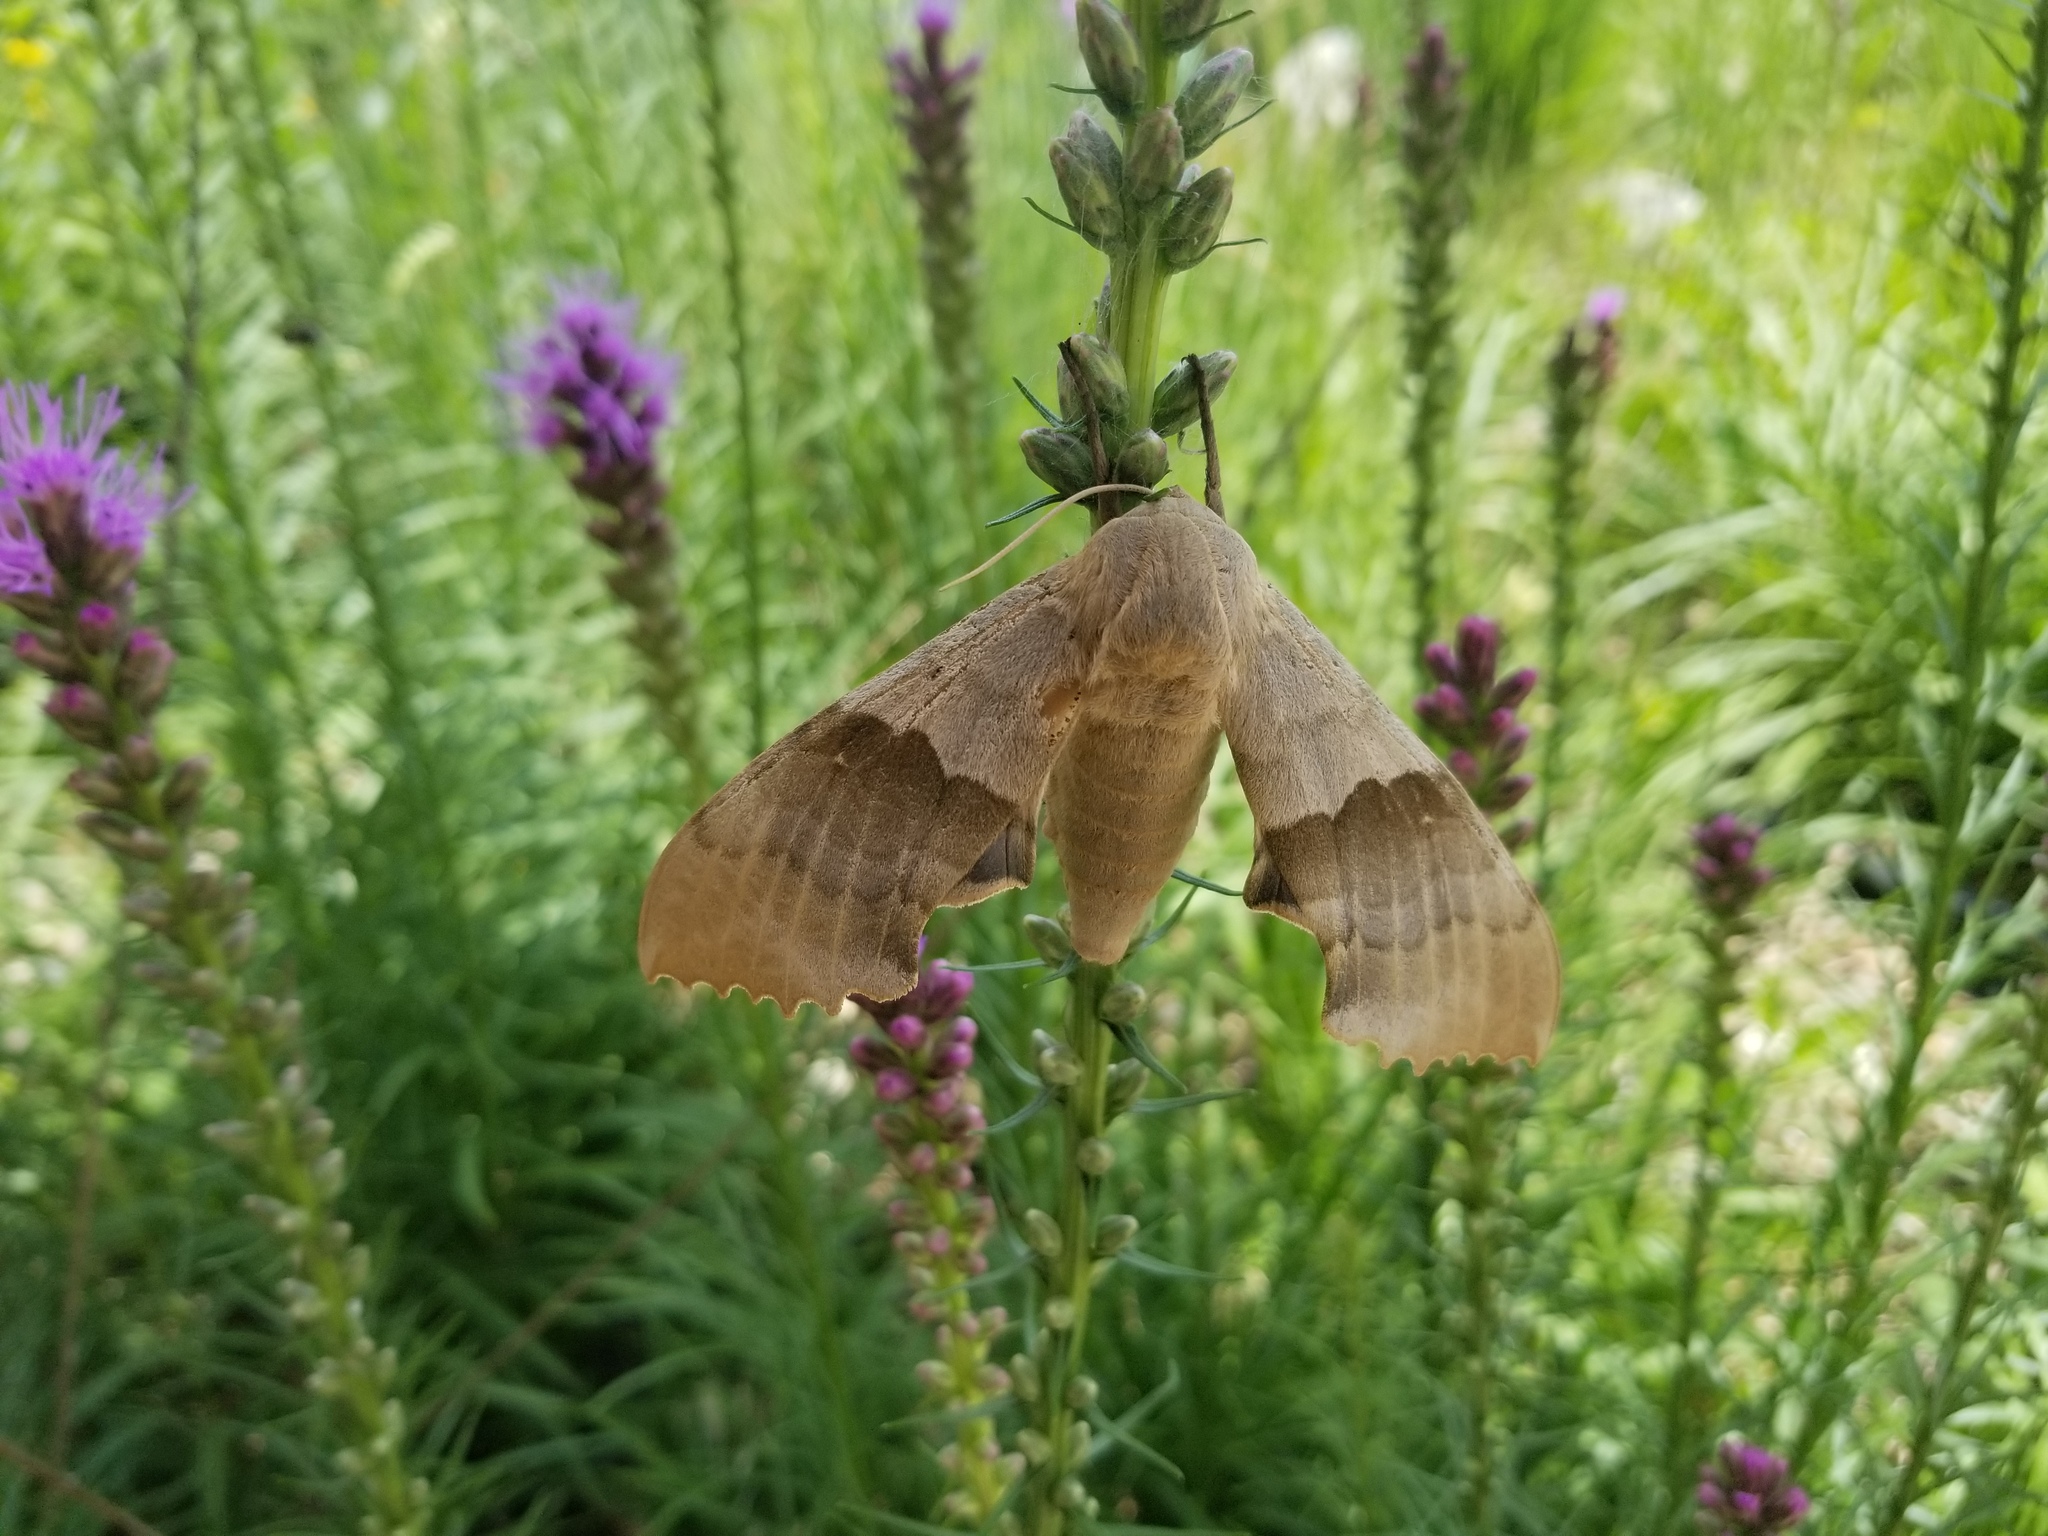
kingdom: Animalia
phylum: Arthropoda
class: Insecta
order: Lepidoptera
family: Sphingidae
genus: Pachysphinx
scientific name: Pachysphinx modesta
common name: Big poplar sphinx
